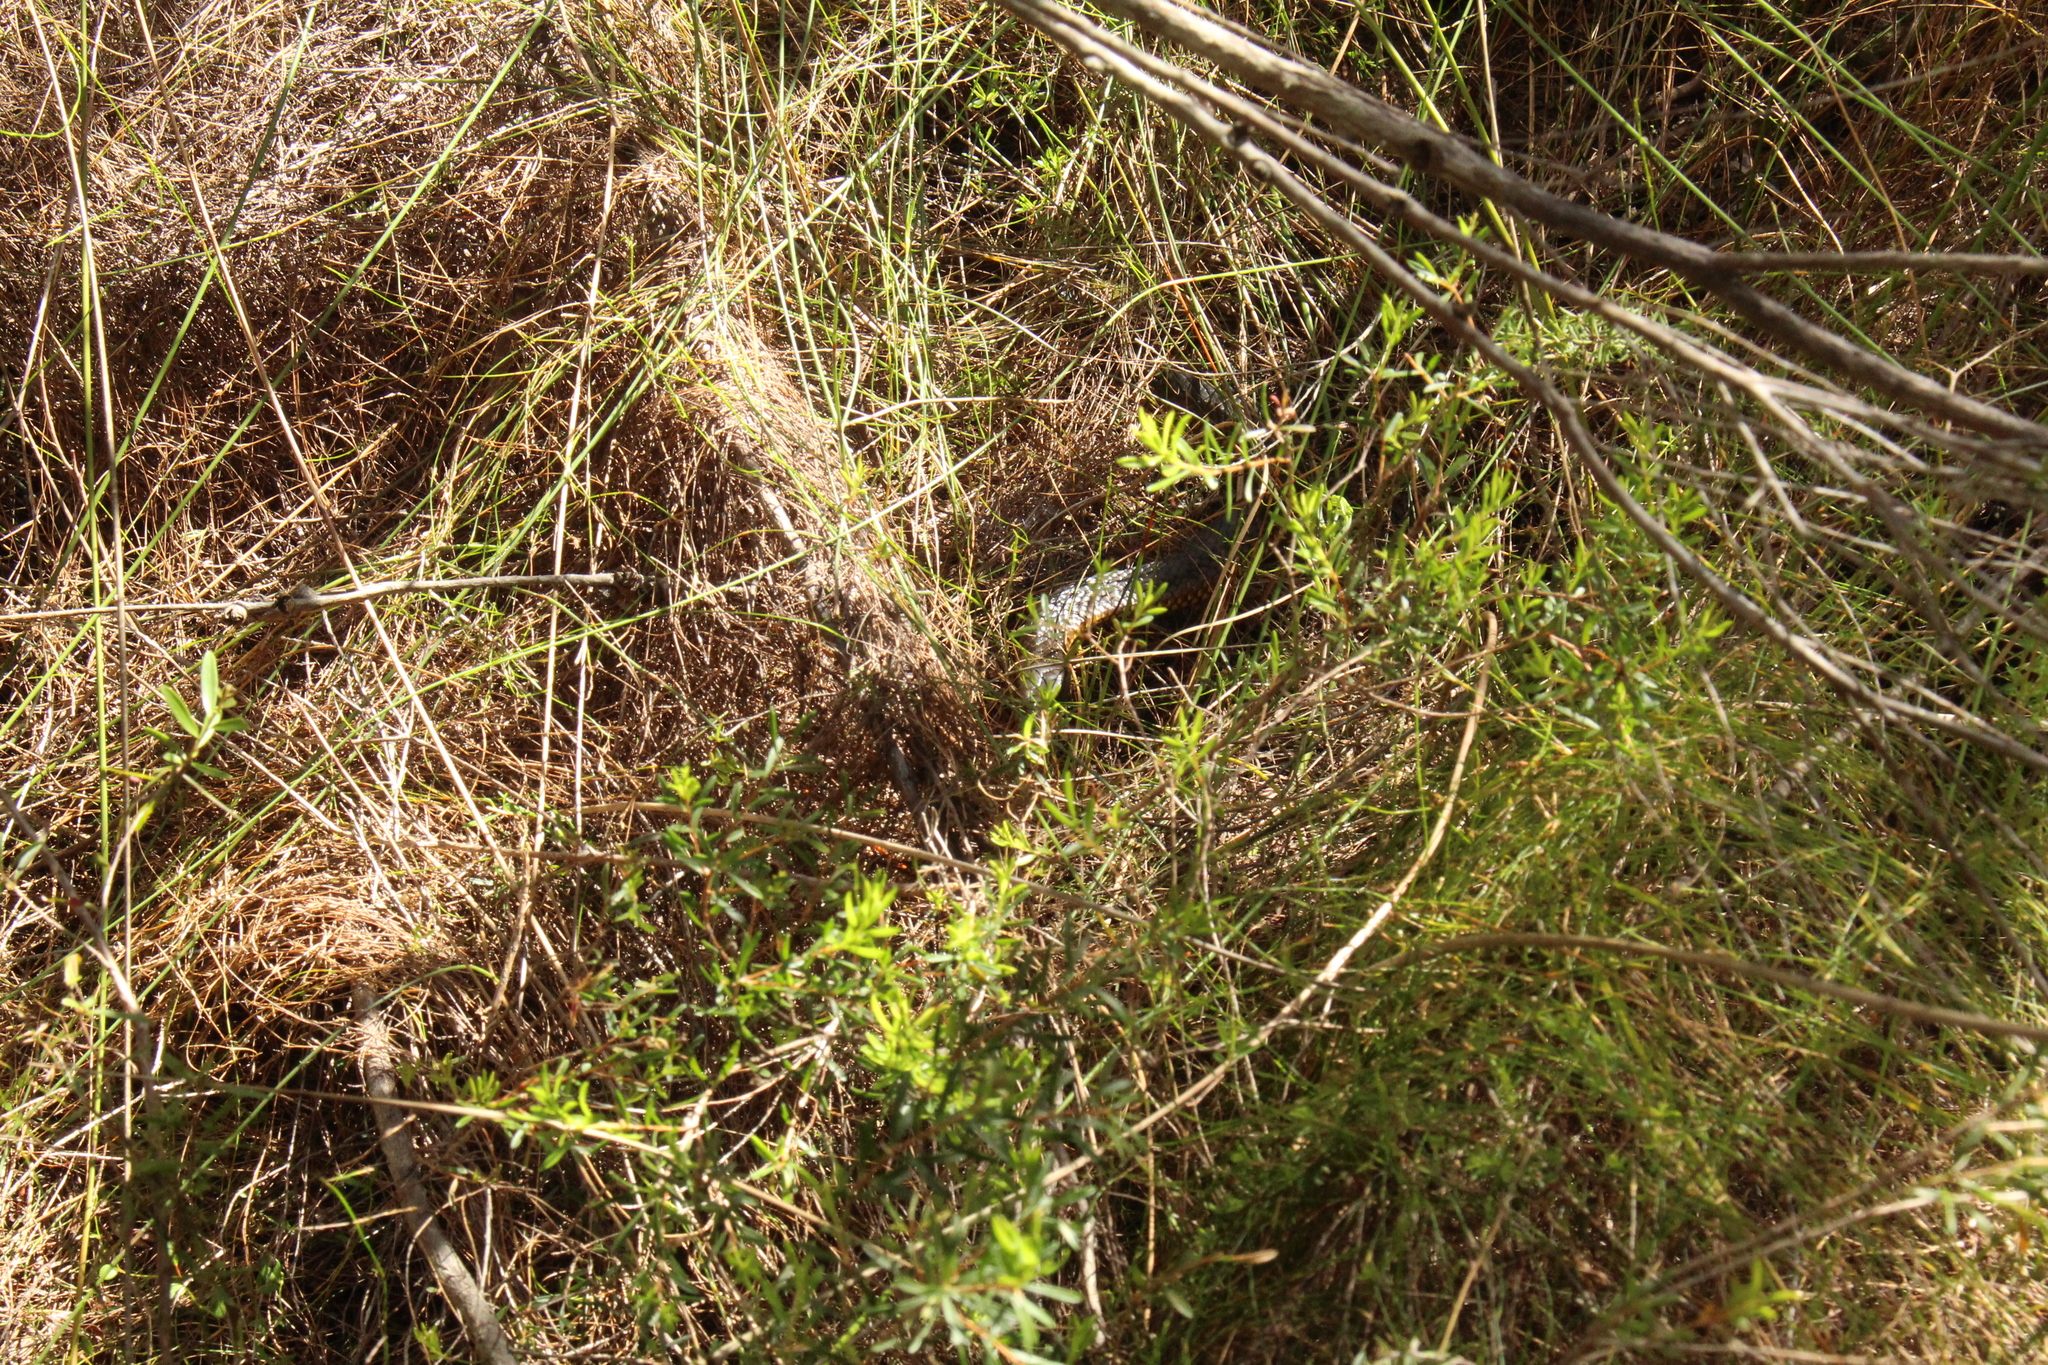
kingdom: Animalia
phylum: Chordata
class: Squamata
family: Elapidae
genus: Notechis
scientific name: Notechis scutatus
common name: Mainland tiger snake
